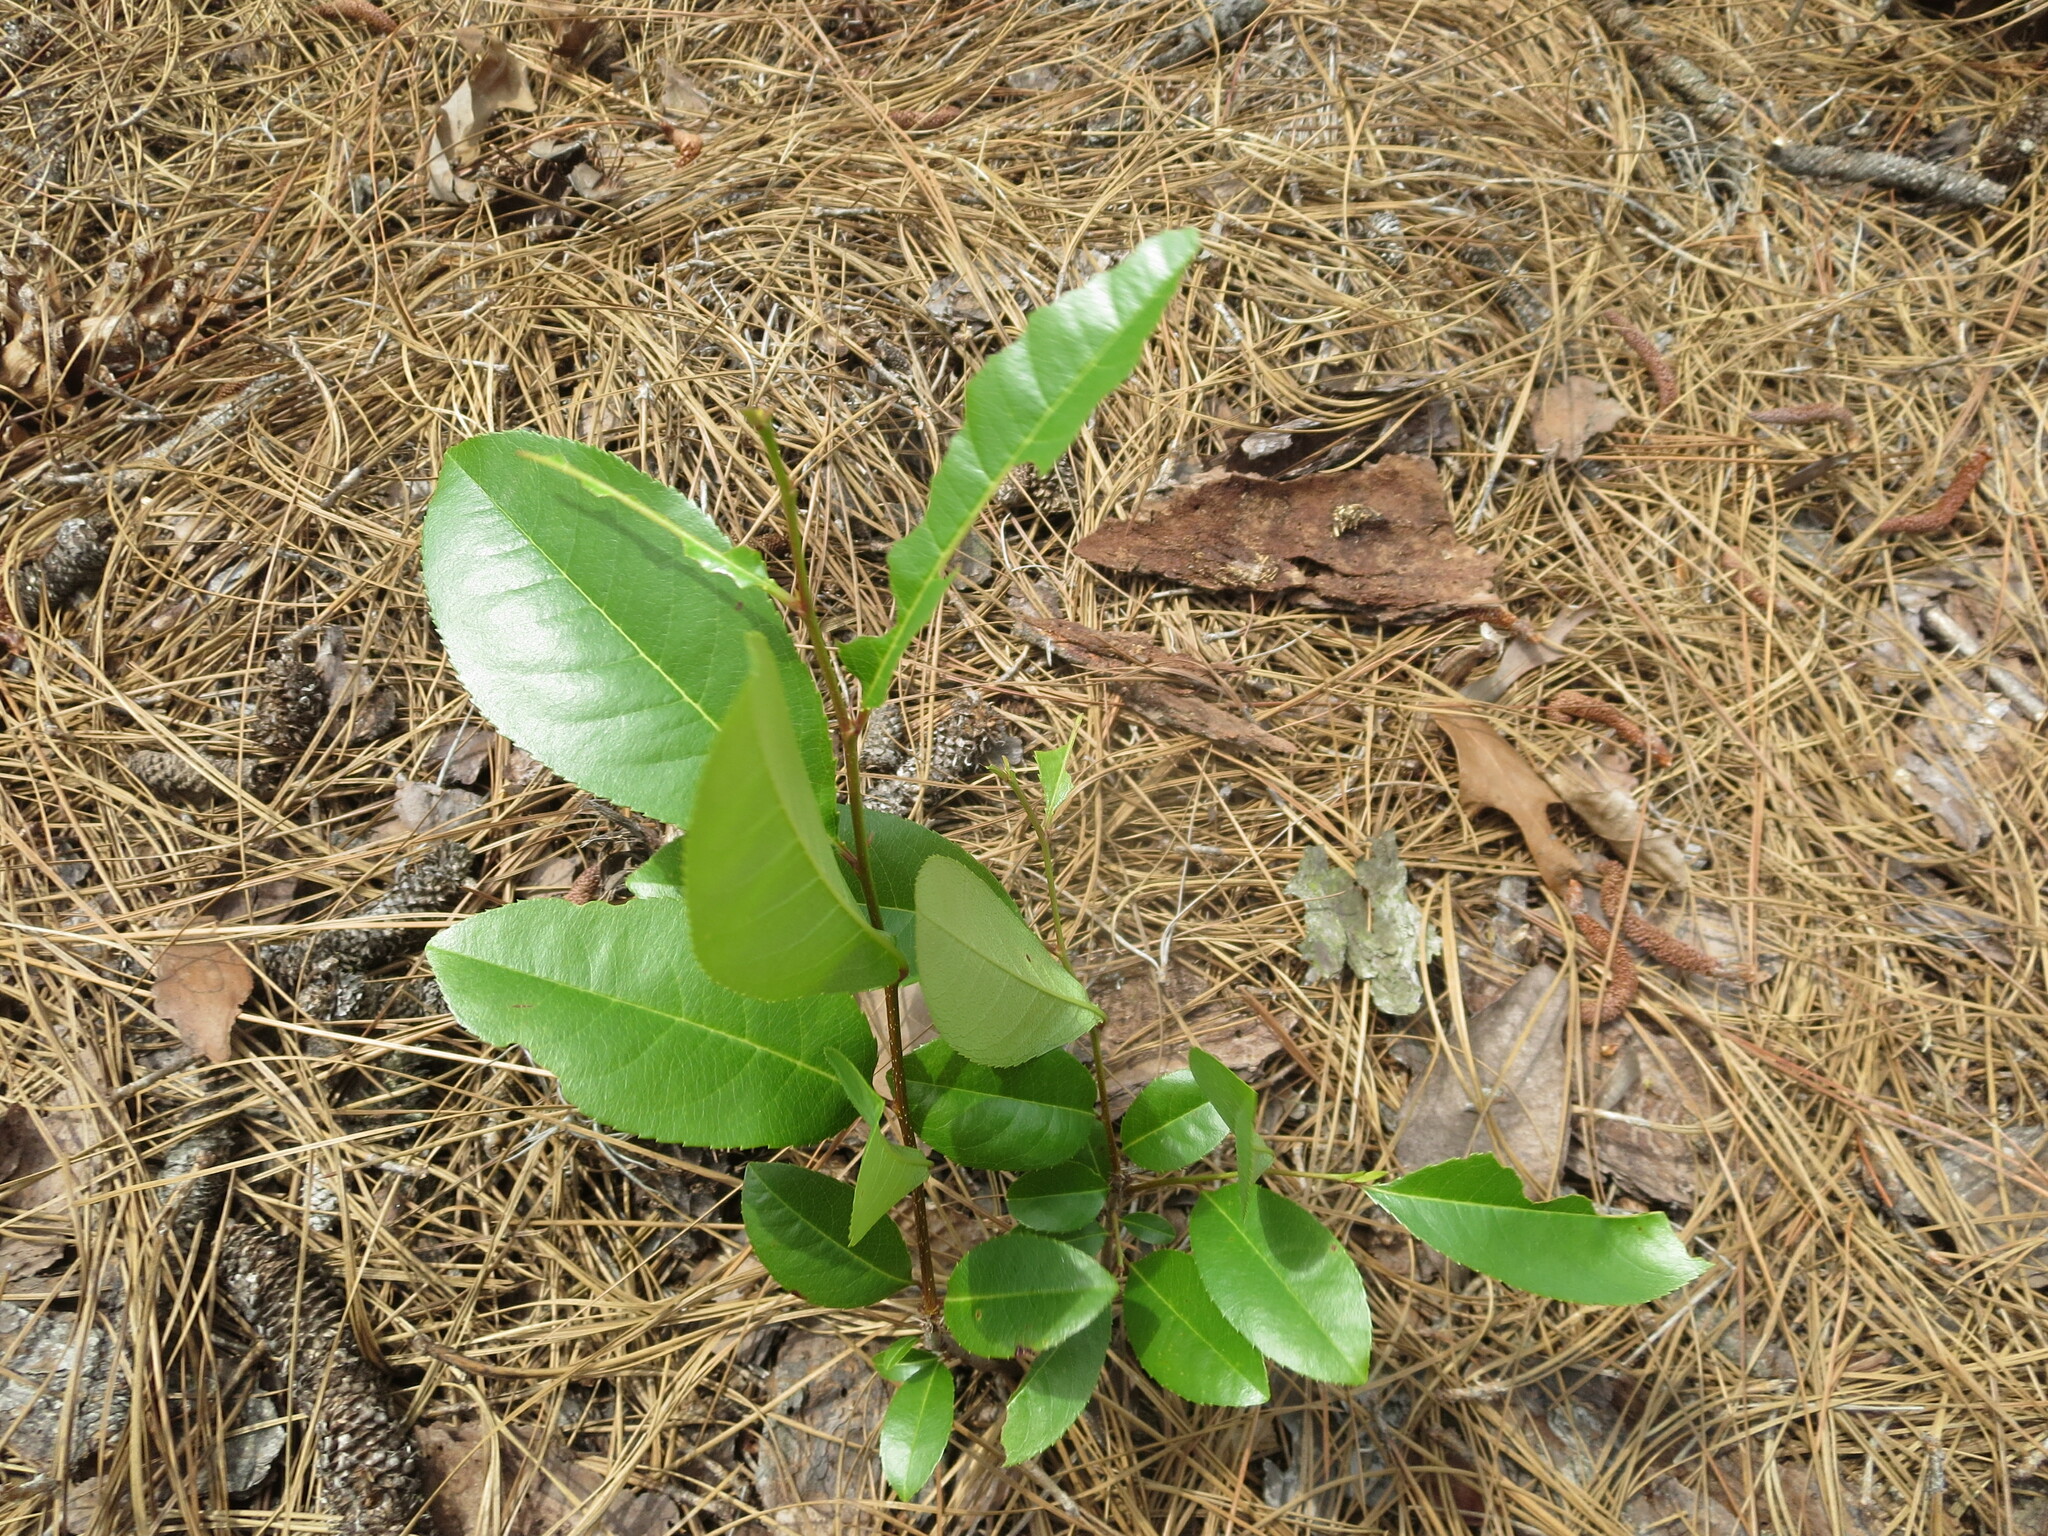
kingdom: Plantae
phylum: Tracheophyta
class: Magnoliopsida
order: Rosales
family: Rosaceae
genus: Prunus
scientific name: Prunus serotina
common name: Black cherry
